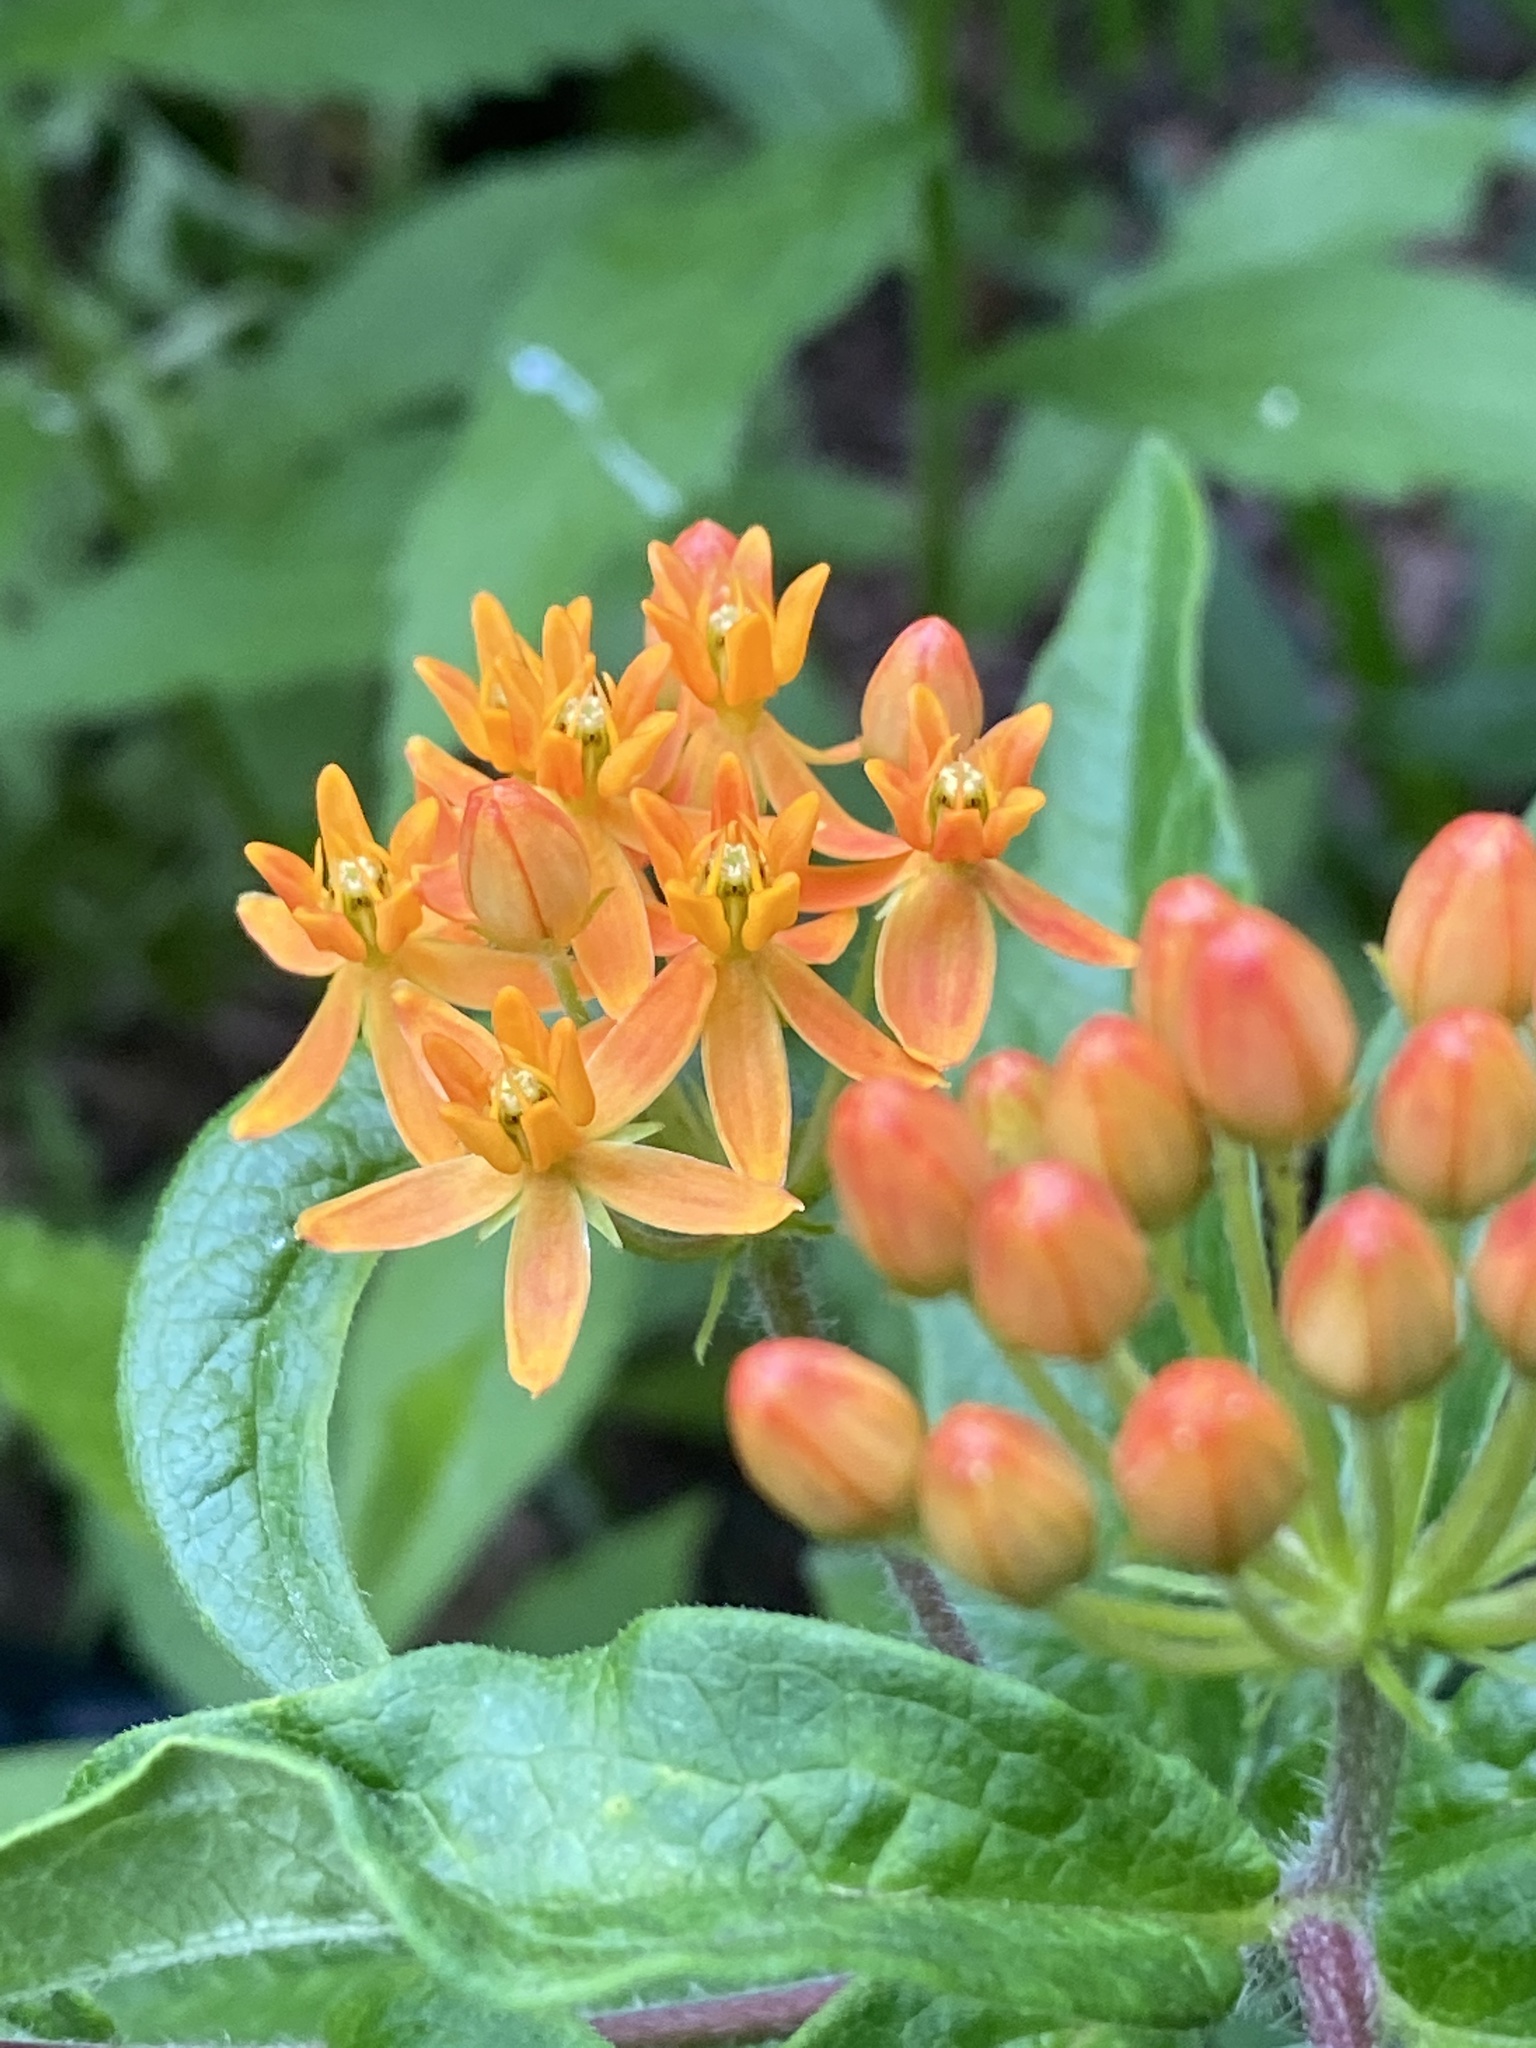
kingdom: Plantae
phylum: Tracheophyta
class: Magnoliopsida
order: Gentianales
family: Apocynaceae
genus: Asclepias
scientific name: Asclepias tuberosa
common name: Butterfly milkweed
